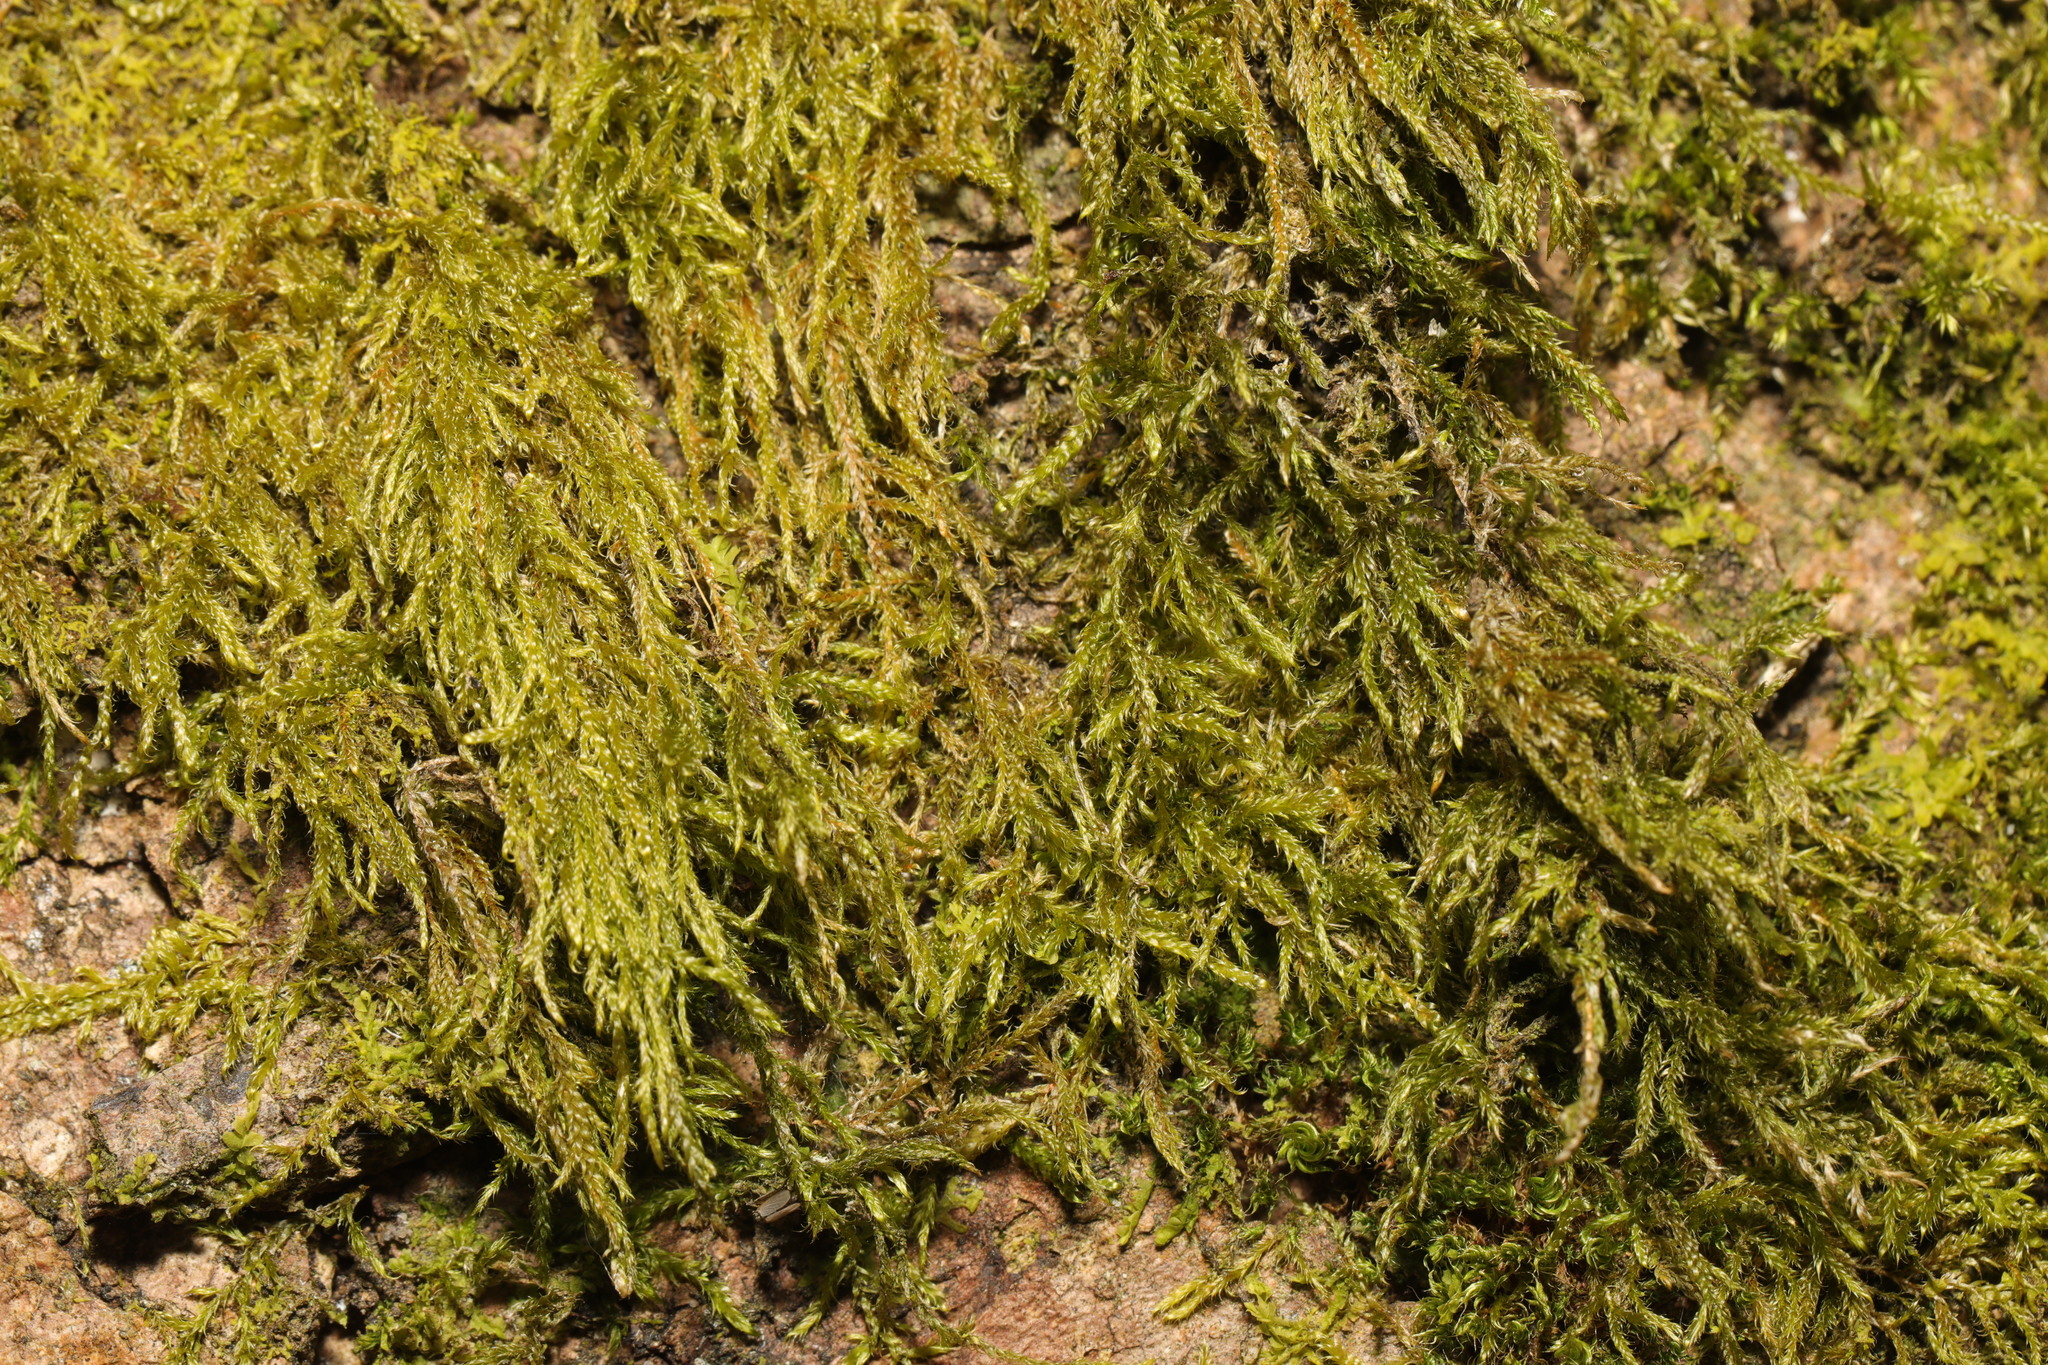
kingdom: Plantae
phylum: Bryophyta
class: Bryopsida
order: Hypnales
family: Hypnaceae
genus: Hypnum
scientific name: Hypnum cupressiforme
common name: Cypress-leaved plait-moss
